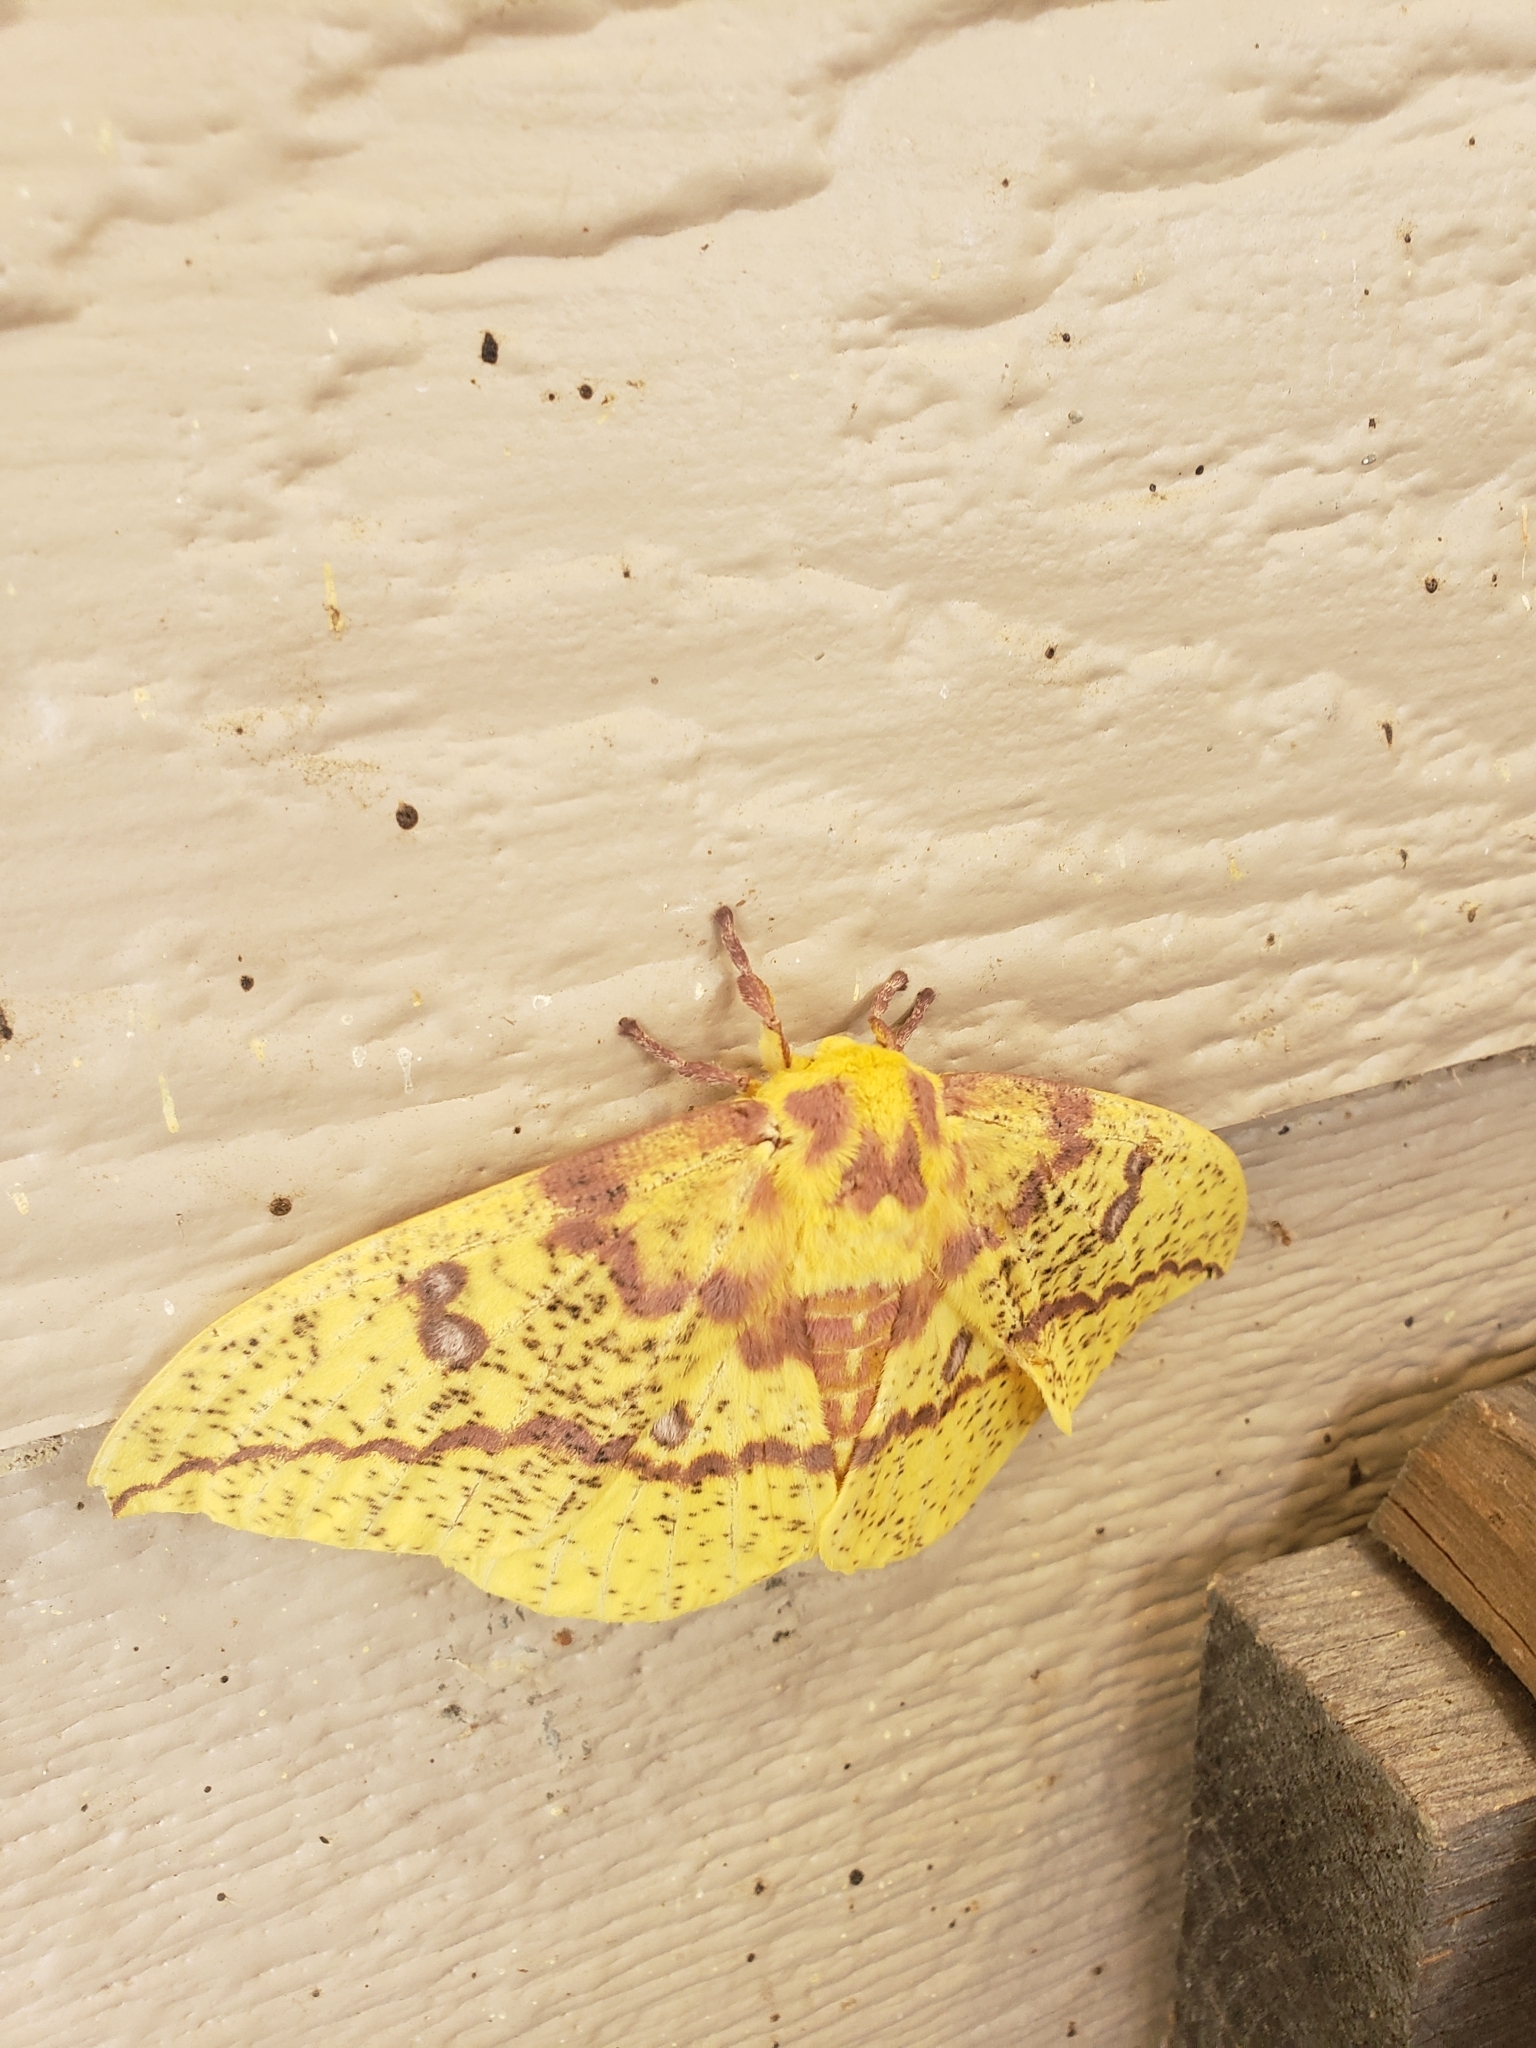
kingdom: Animalia
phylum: Arthropoda
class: Insecta
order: Lepidoptera
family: Saturniidae
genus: Eacles
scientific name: Eacles imperialis
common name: Imperial moth
